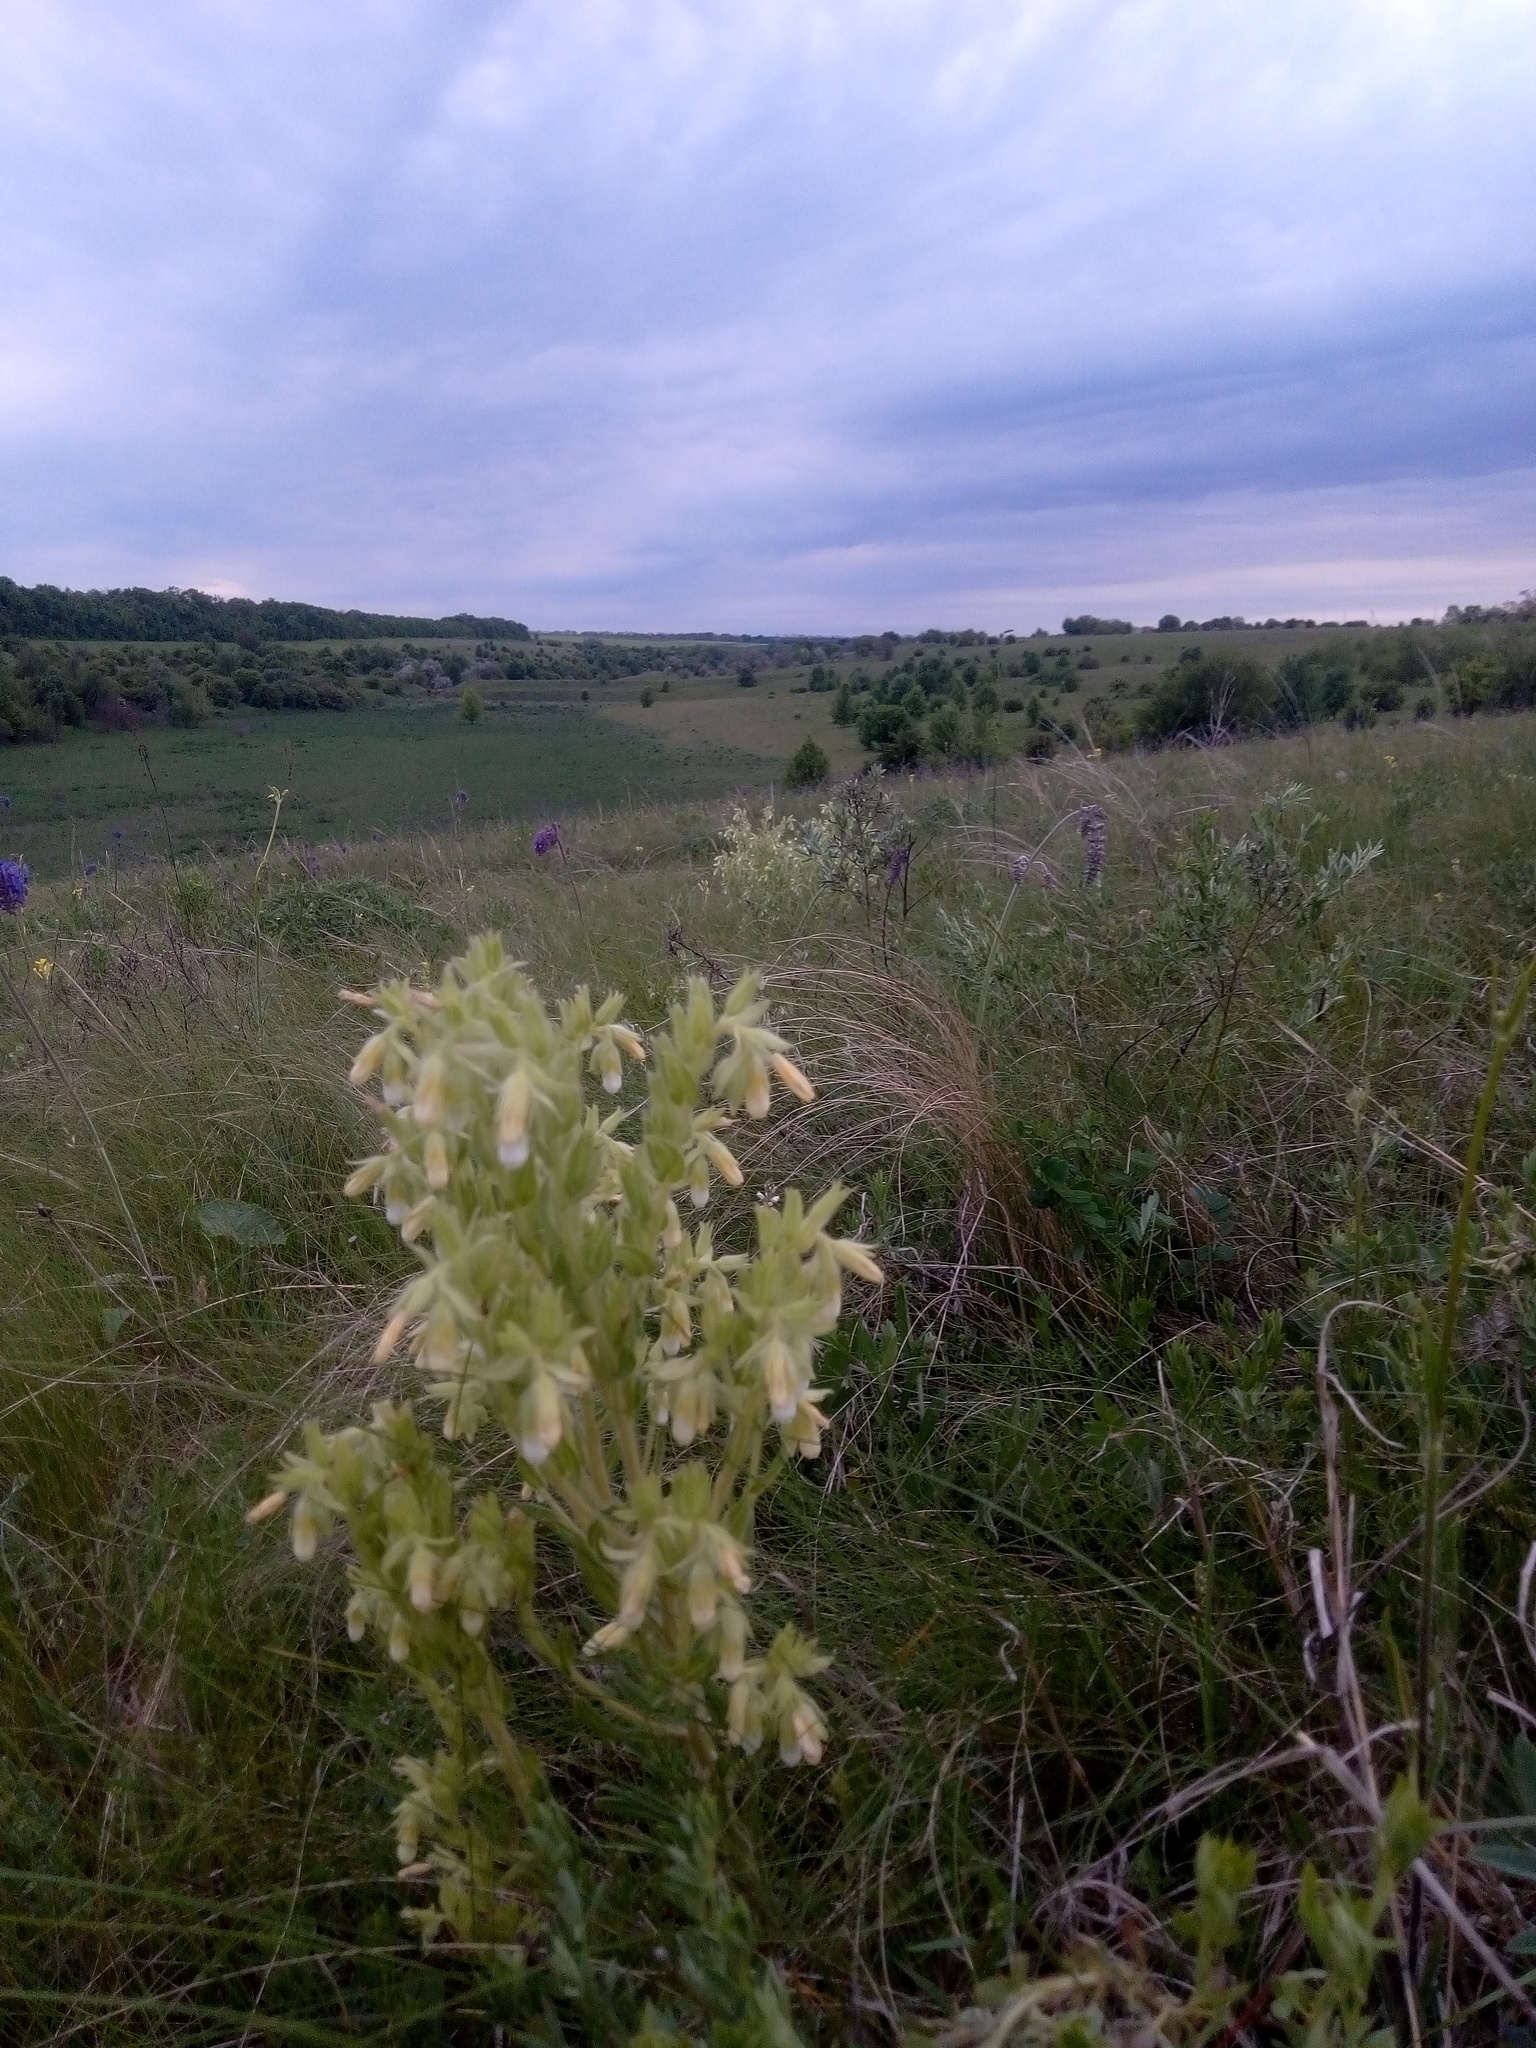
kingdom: Plantae
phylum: Tracheophyta
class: Magnoliopsida
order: Boraginales
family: Boraginaceae
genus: Onosma
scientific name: Onosma tinctoria
